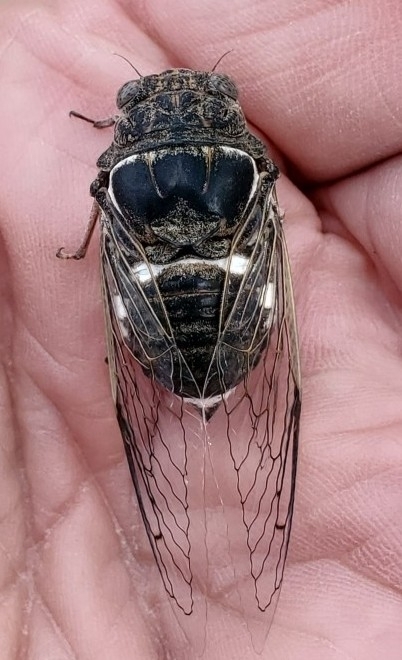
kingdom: Animalia
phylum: Arthropoda
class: Insecta
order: Hemiptera
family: Cicadidae
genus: Cacama
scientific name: Cacama valvata
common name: Cactus dodger
